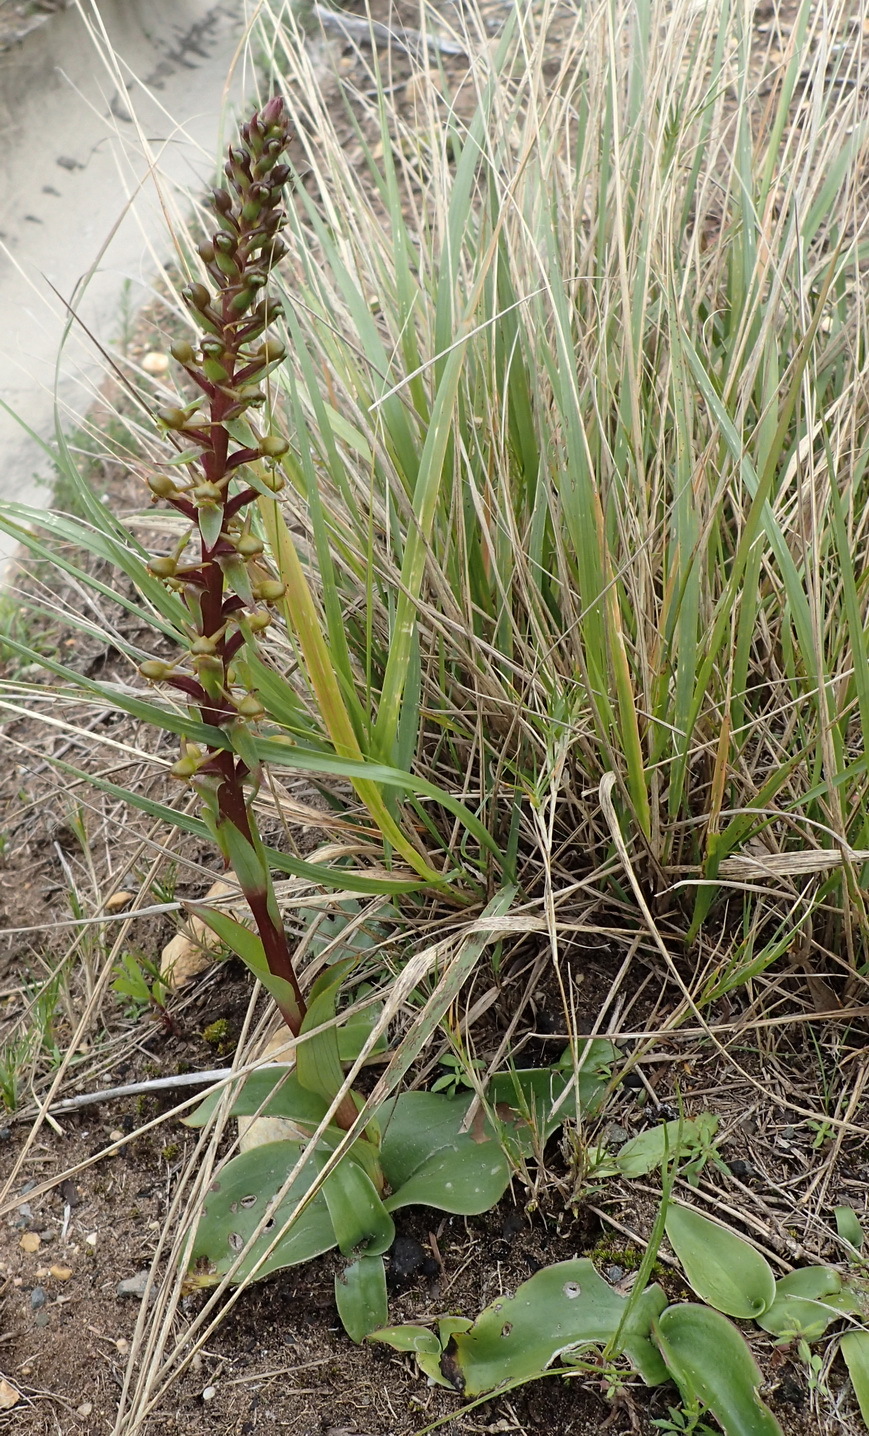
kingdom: Plantae
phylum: Tracheophyta
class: Liliopsida
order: Asparagales
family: Orchidaceae
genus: Satyrium
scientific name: Satyrium parviflorum
